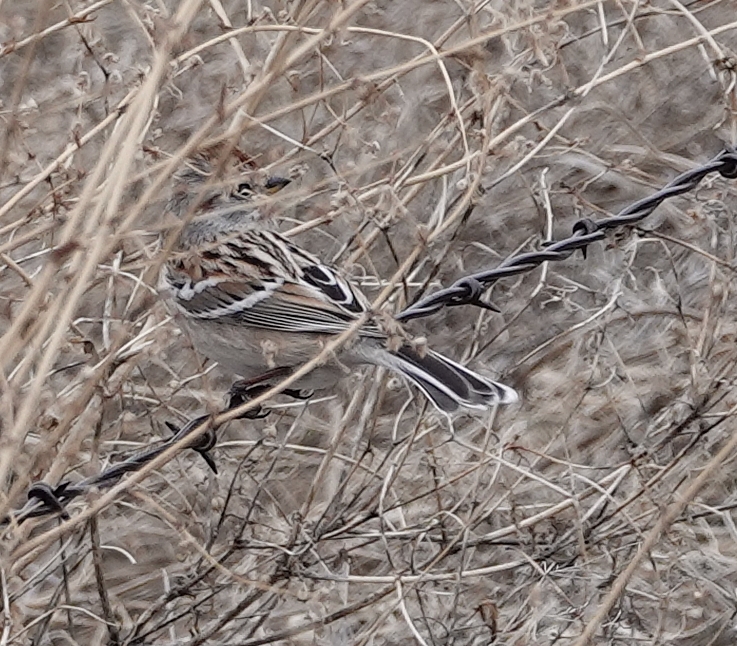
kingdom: Animalia
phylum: Chordata
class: Aves
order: Passeriformes
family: Passerellidae
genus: Spizelloides
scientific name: Spizelloides arborea
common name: American tree sparrow
